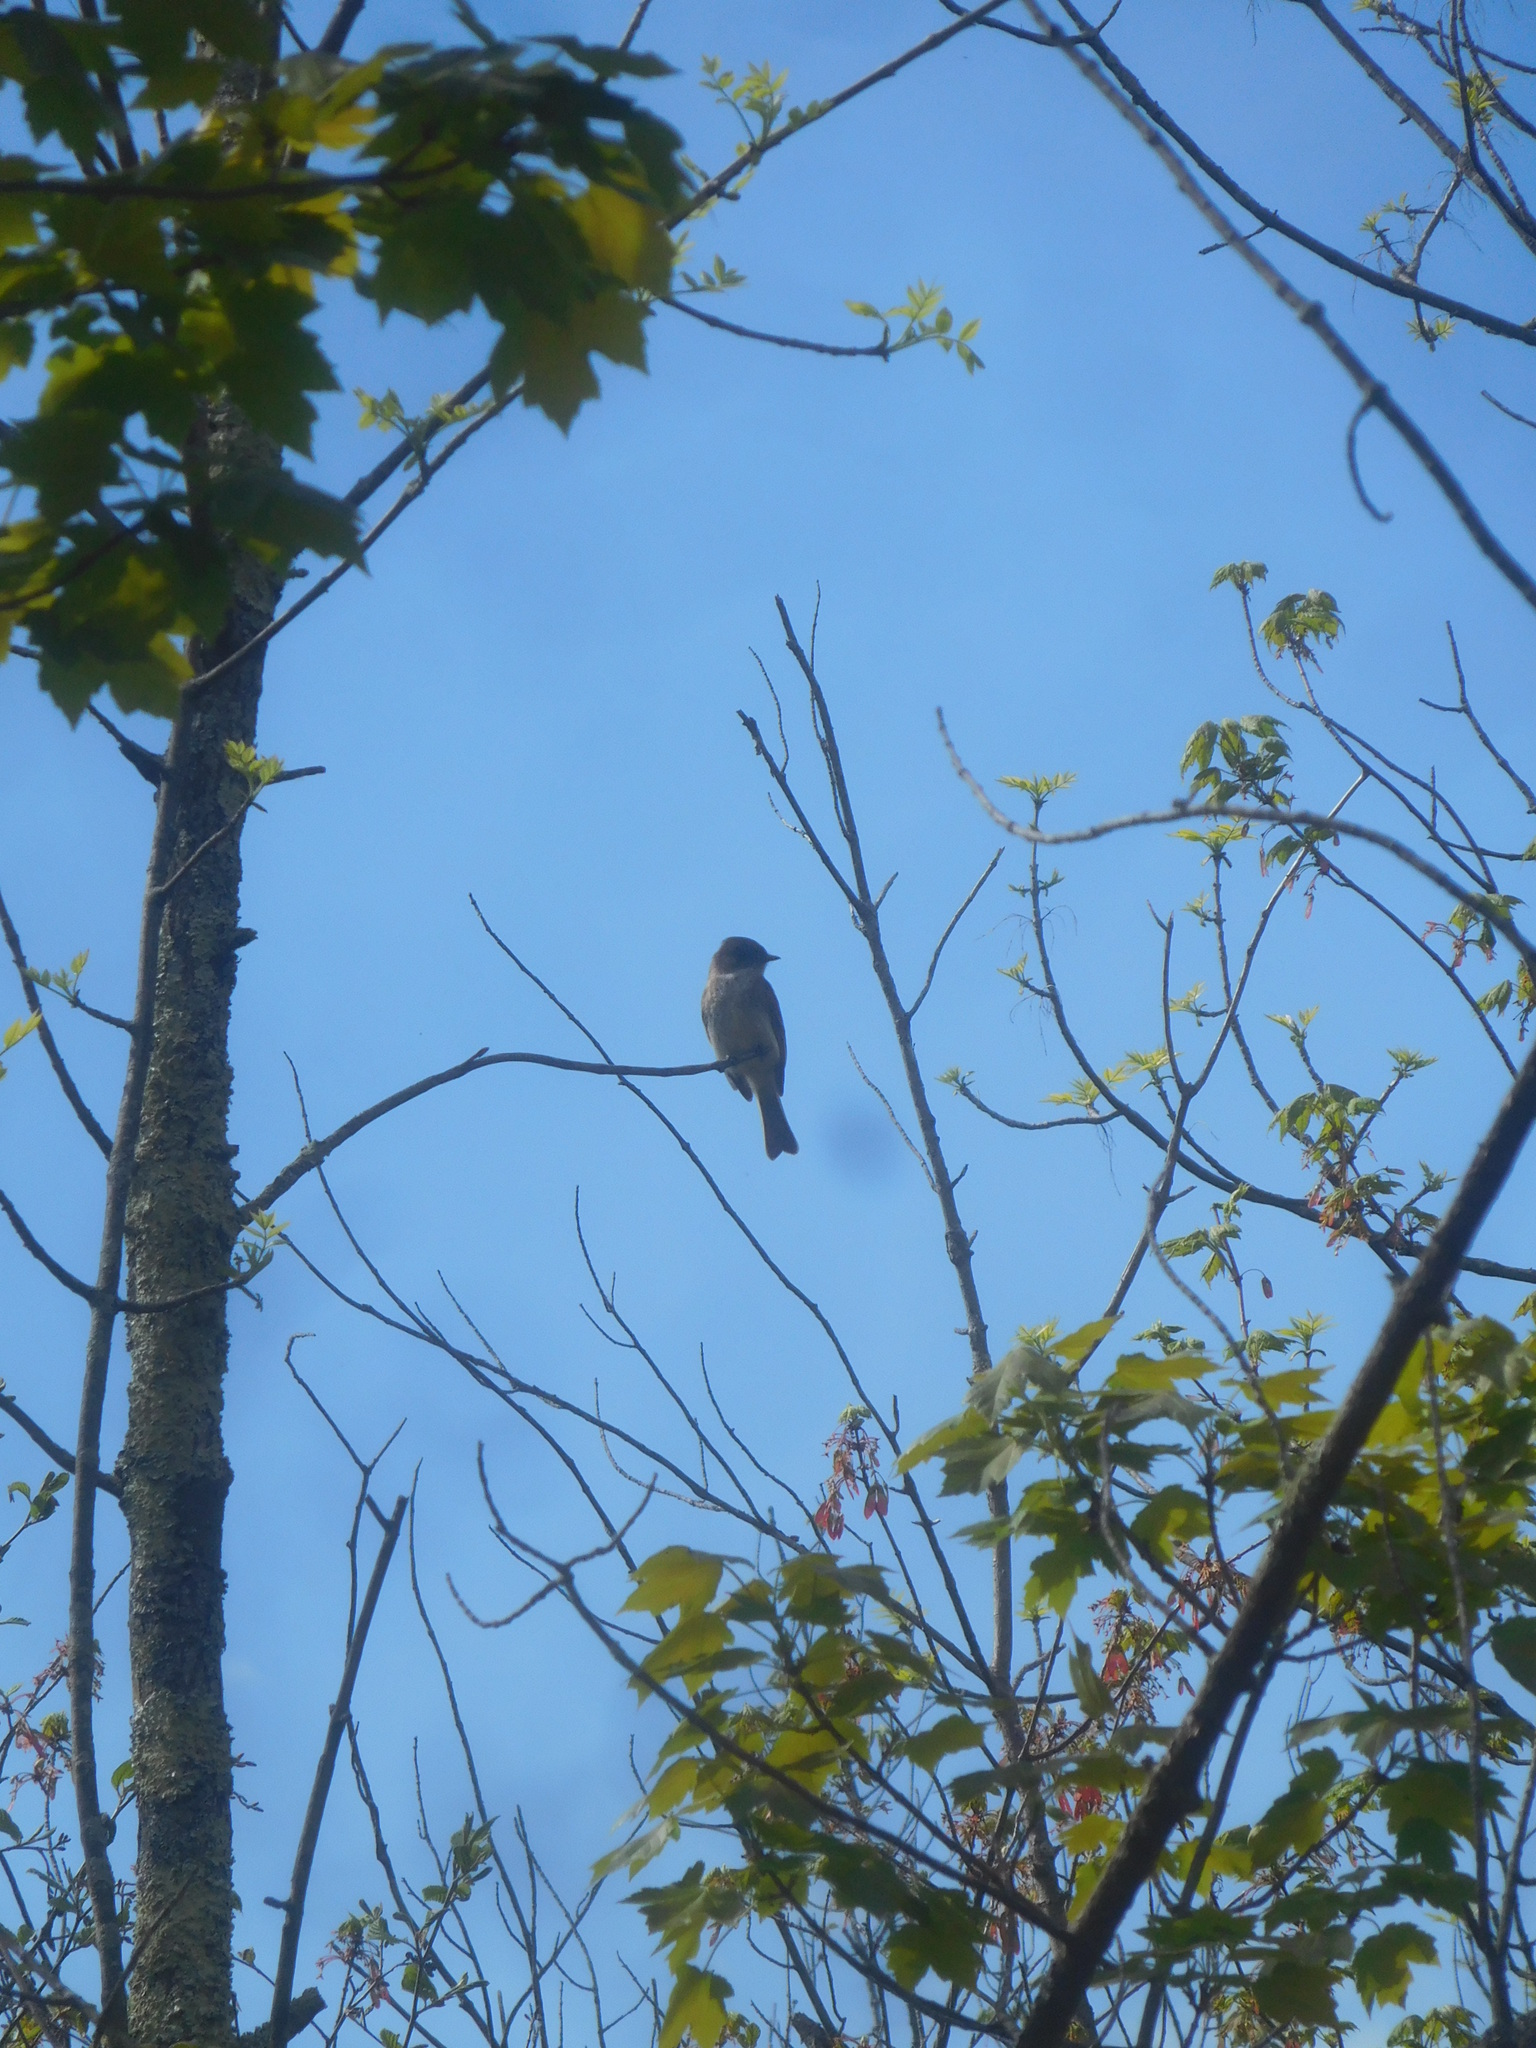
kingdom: Animalia
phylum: Chordata
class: Aves
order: Passeriformes
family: Tyrannidae
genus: Sayornis
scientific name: Sayornis phoebe
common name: Eastern phoebe
